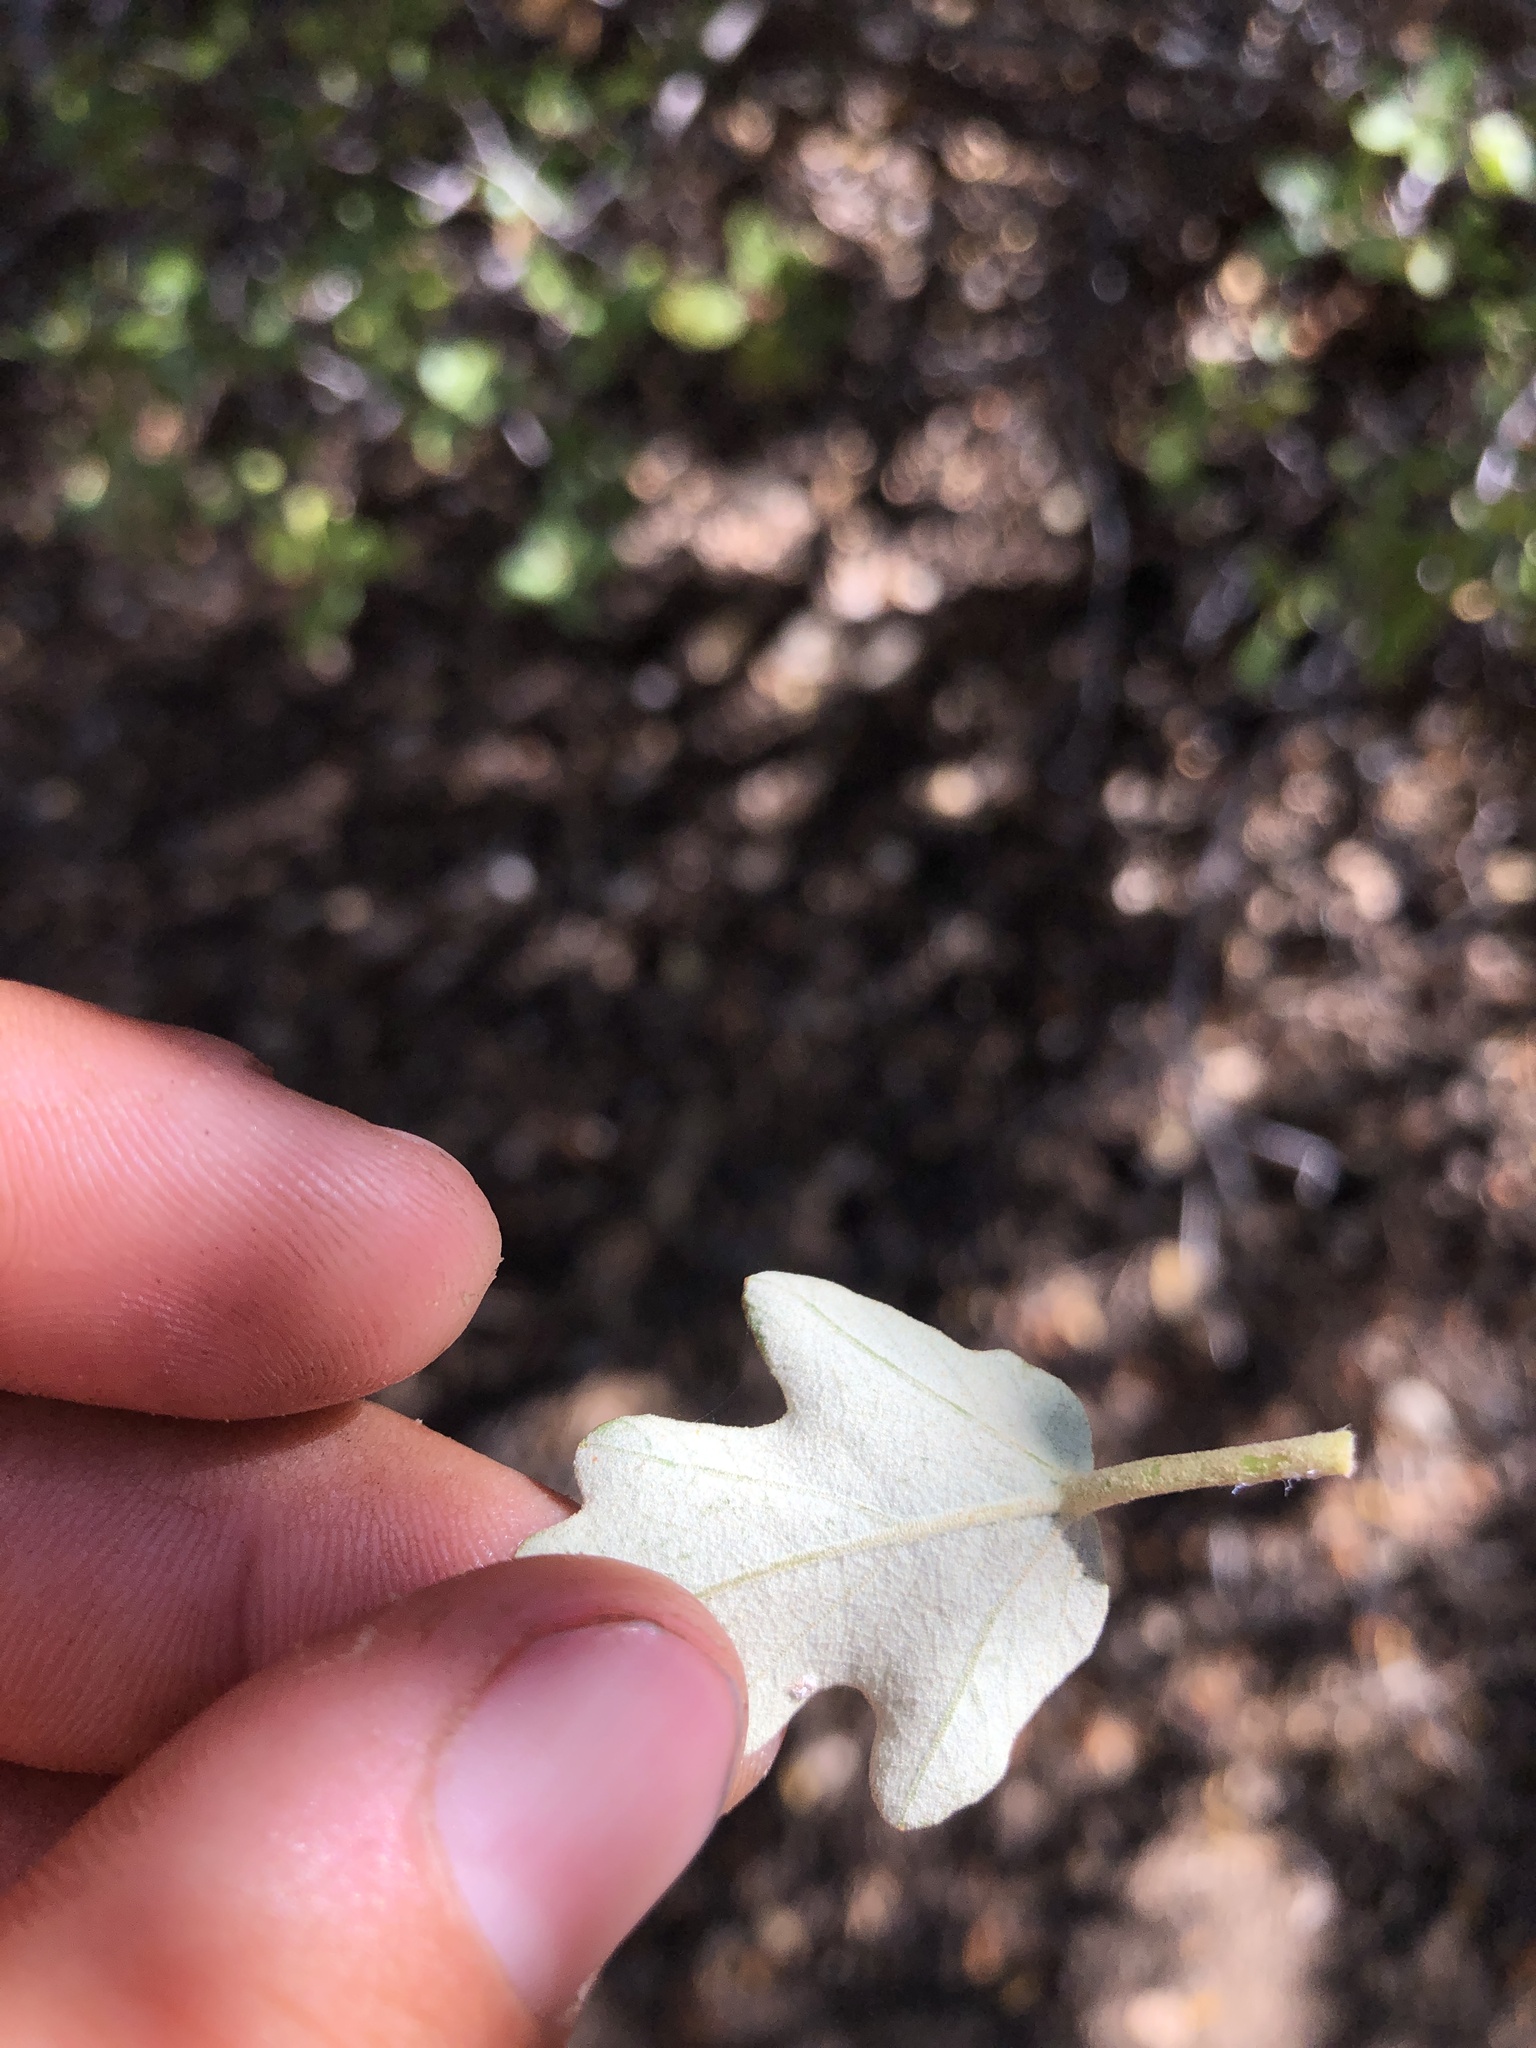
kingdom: Plantae
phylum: Tracheophyta
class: Magnoliopsida
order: Malvales
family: Malvaceae
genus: Fremontodendron
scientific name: Fremontodendron californicum
